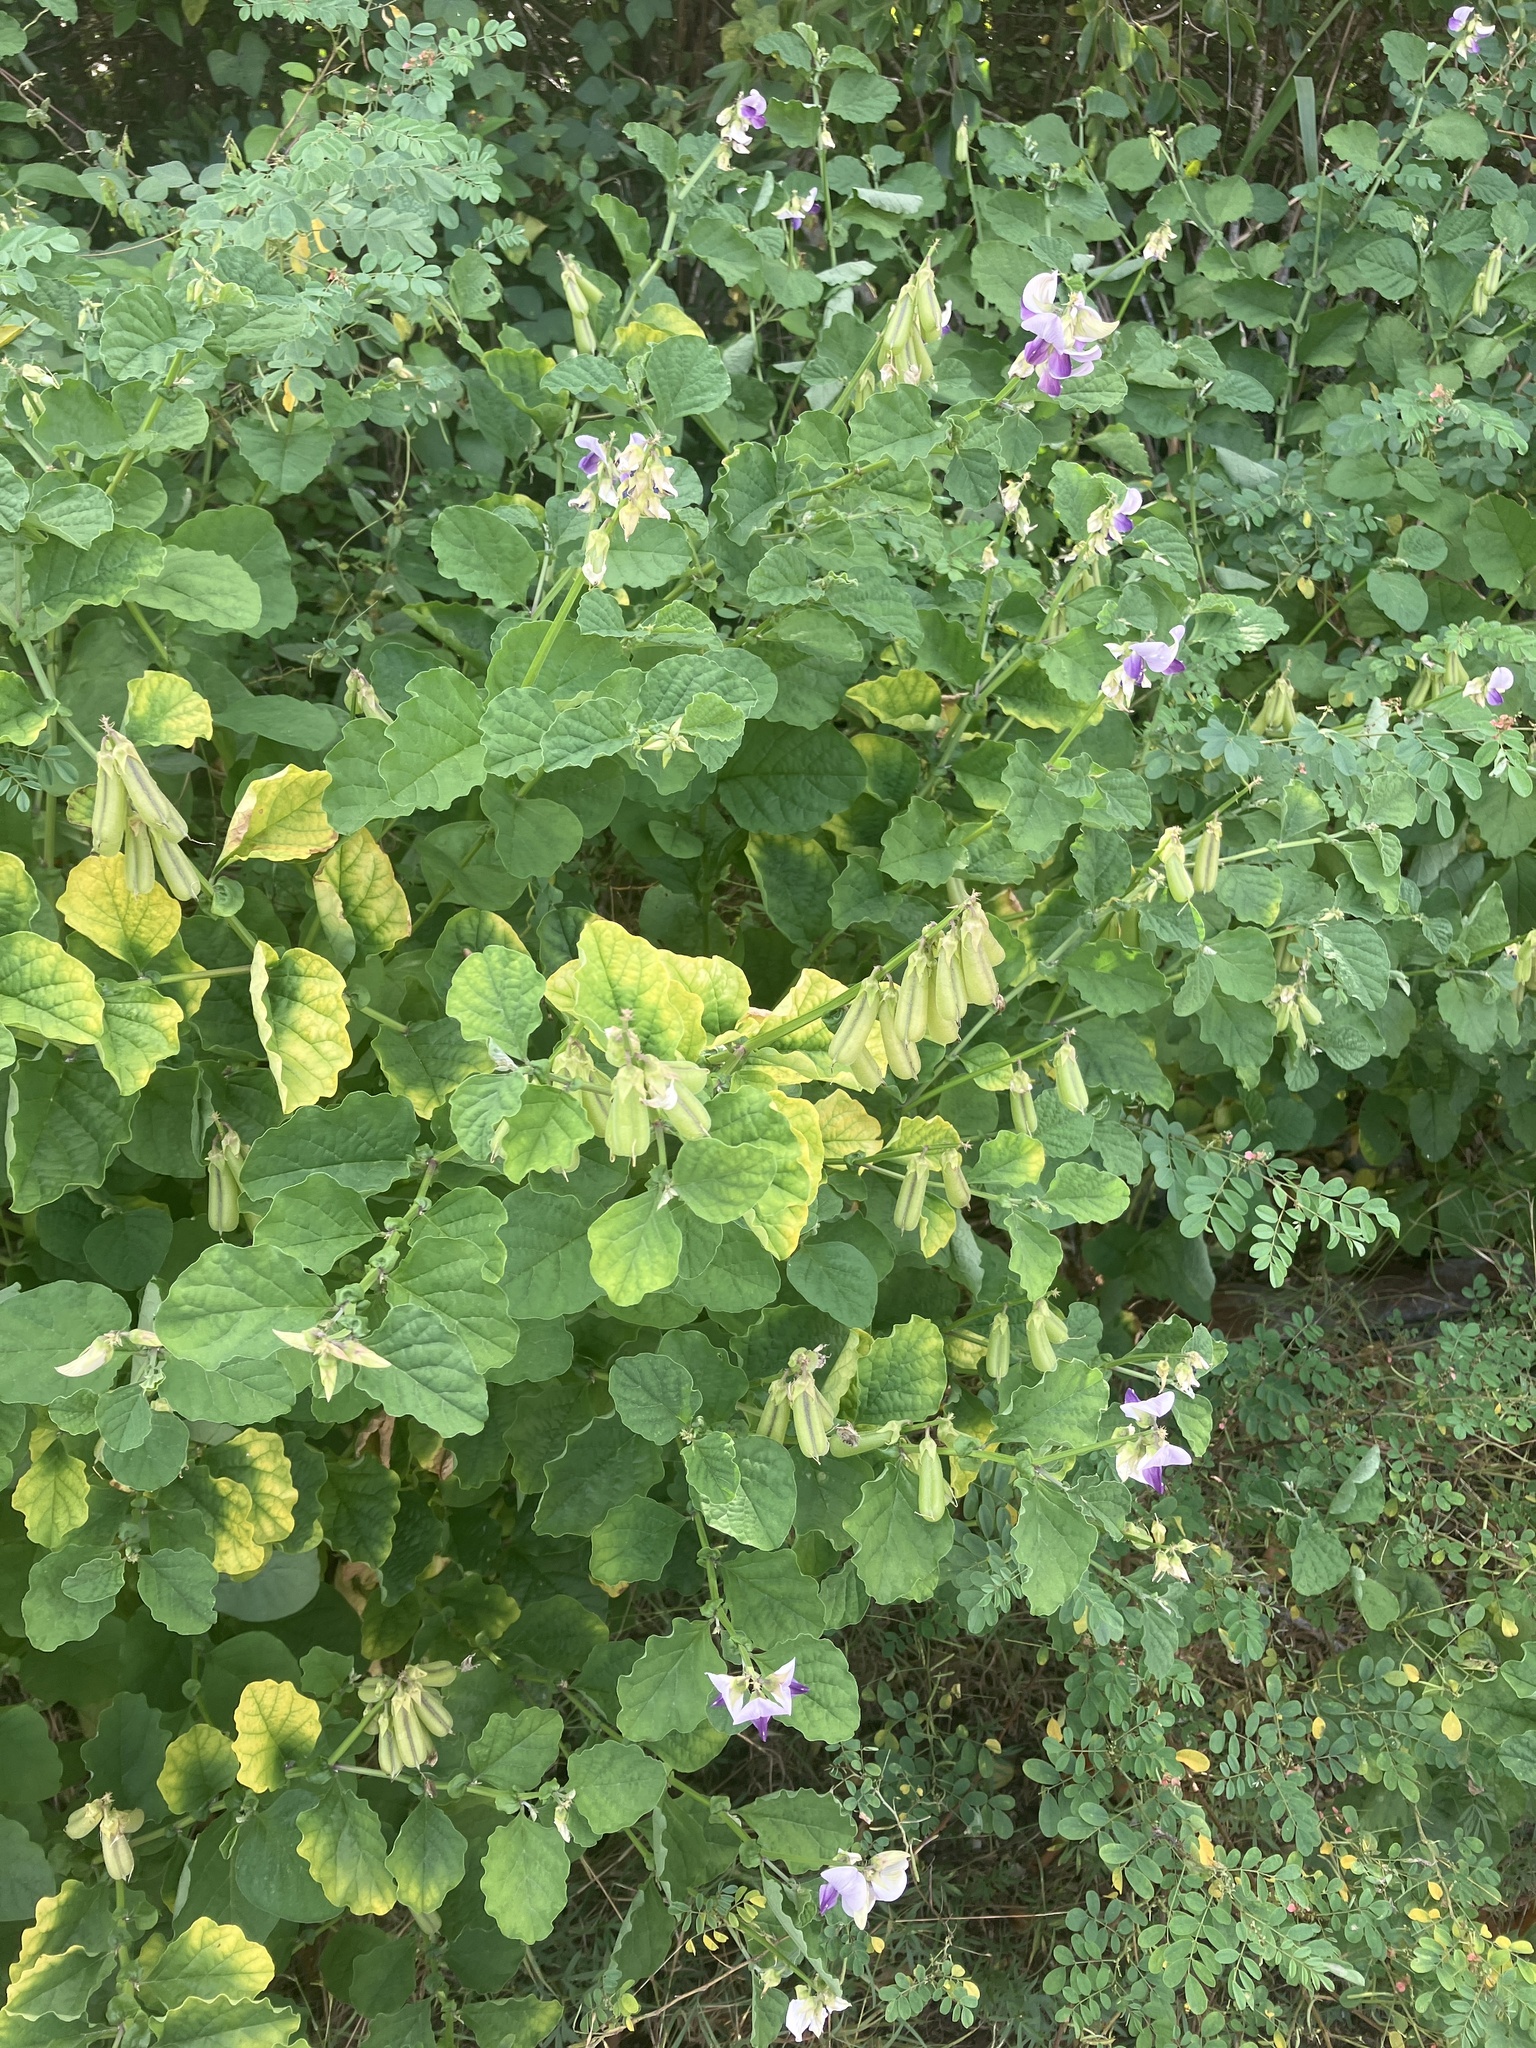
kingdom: Plantae
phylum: Tracheophyta
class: Magnoliopsida
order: Fabales
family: Fabaceae
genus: Crotalaria
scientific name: Crotalaria verrucosa
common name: Blue rattlesnake
